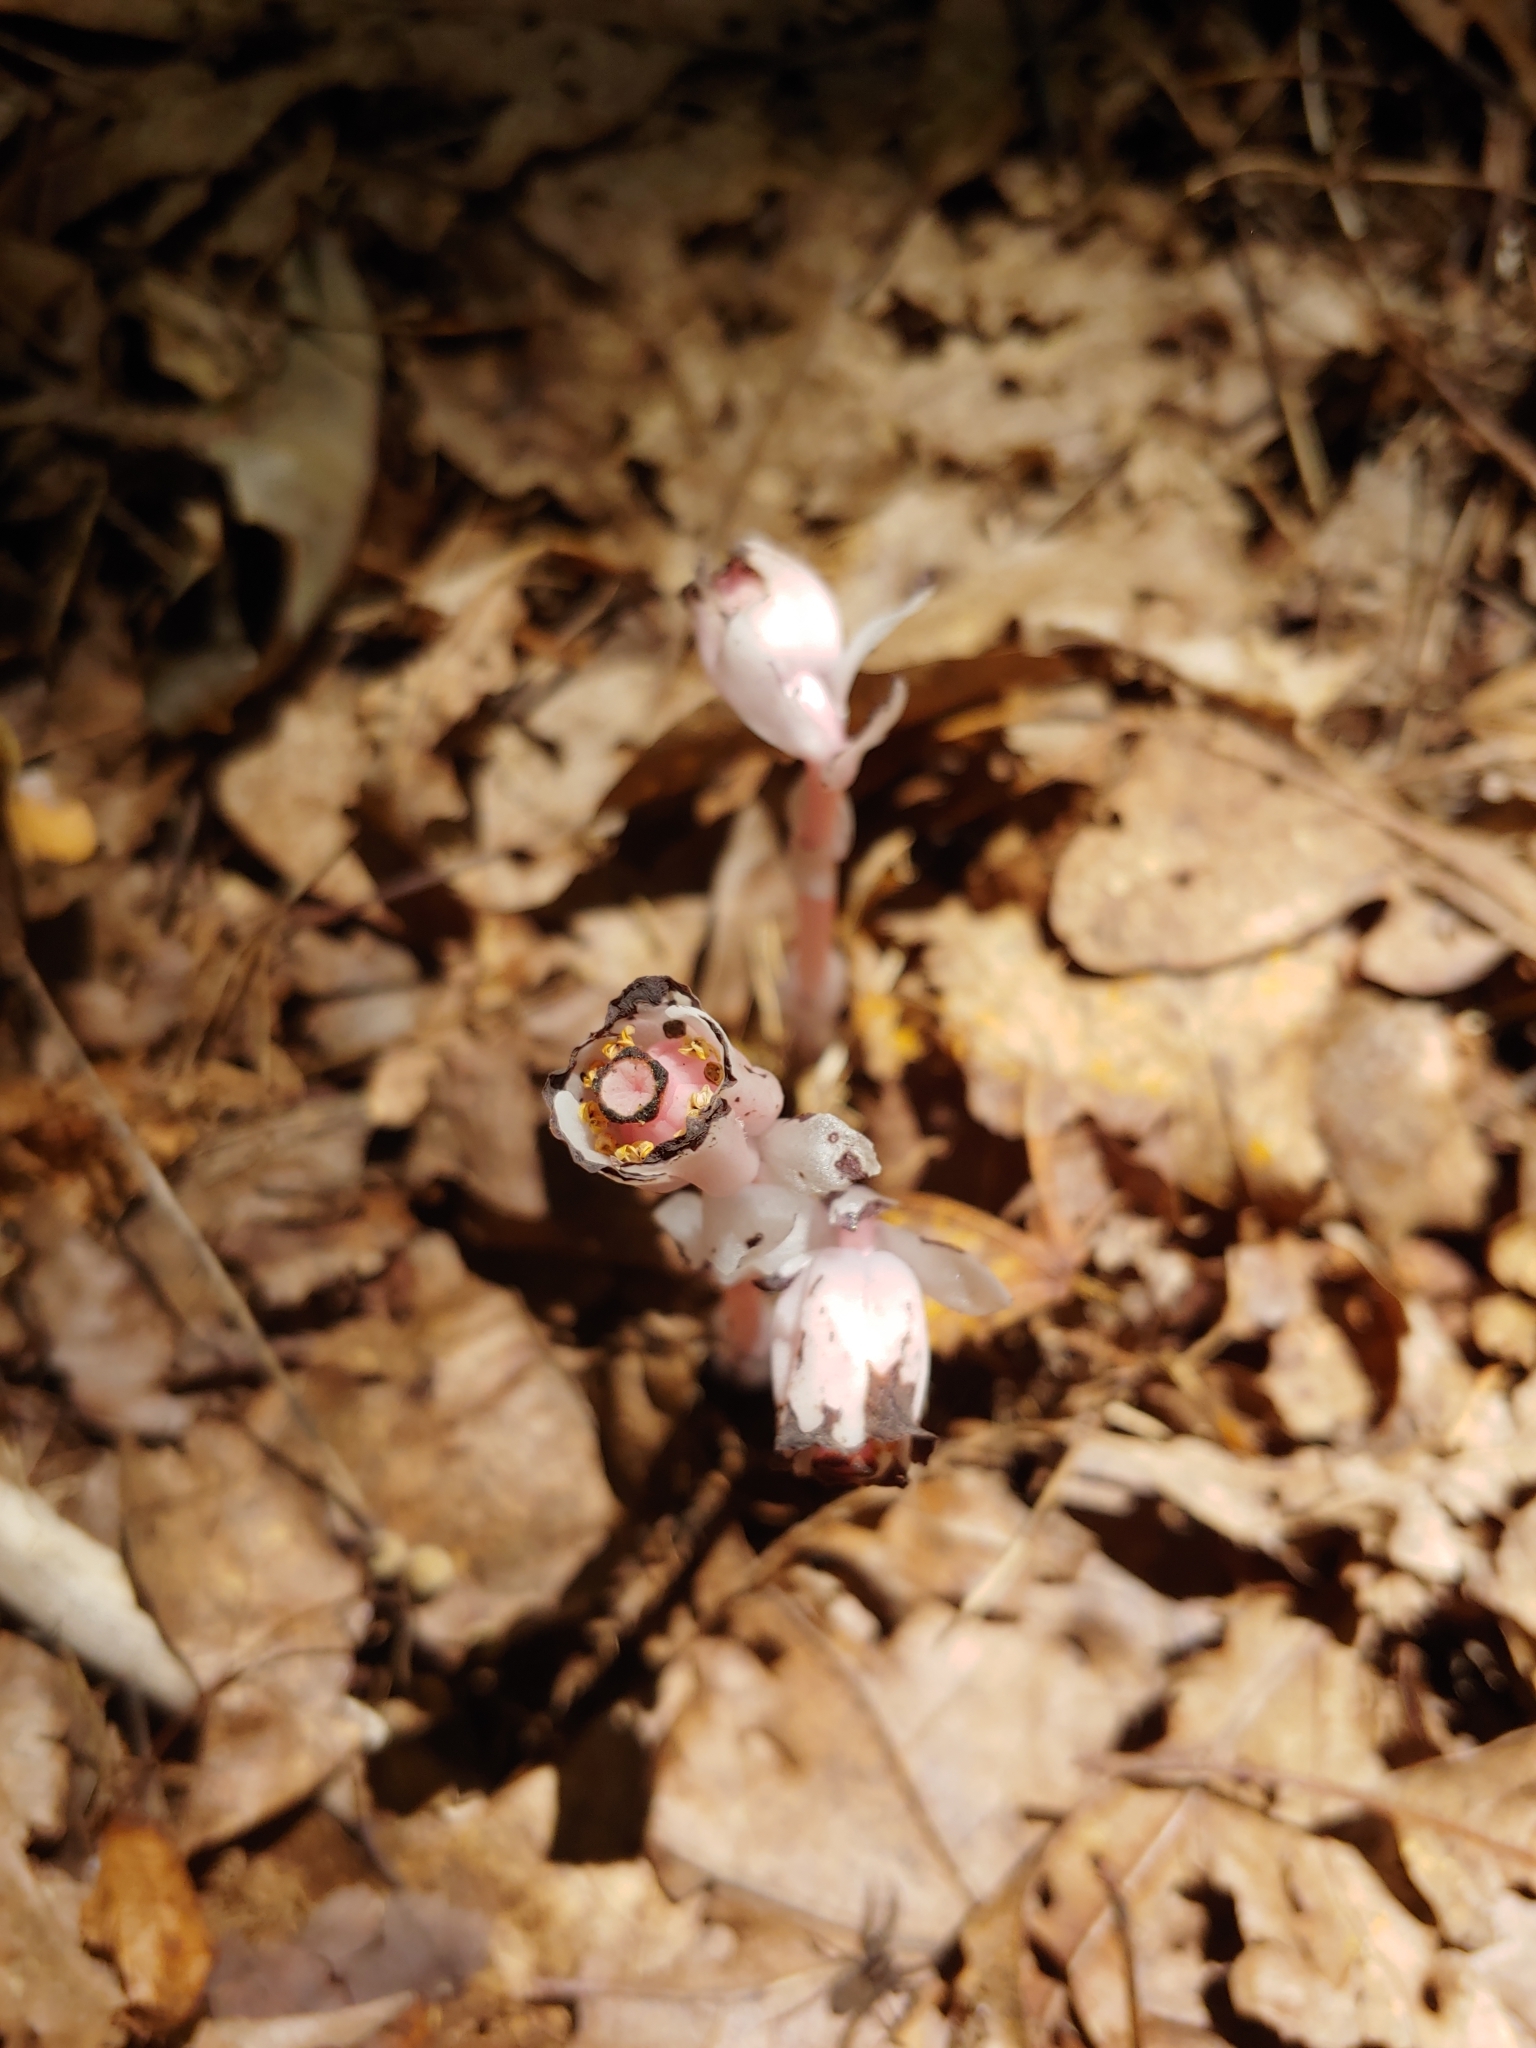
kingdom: Plantae
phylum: Tracheophyta
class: Magnoliopsida
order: Ericales
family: Ericaceae
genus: Monotropa
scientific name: Monotropa uniflora
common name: Convulsion root
